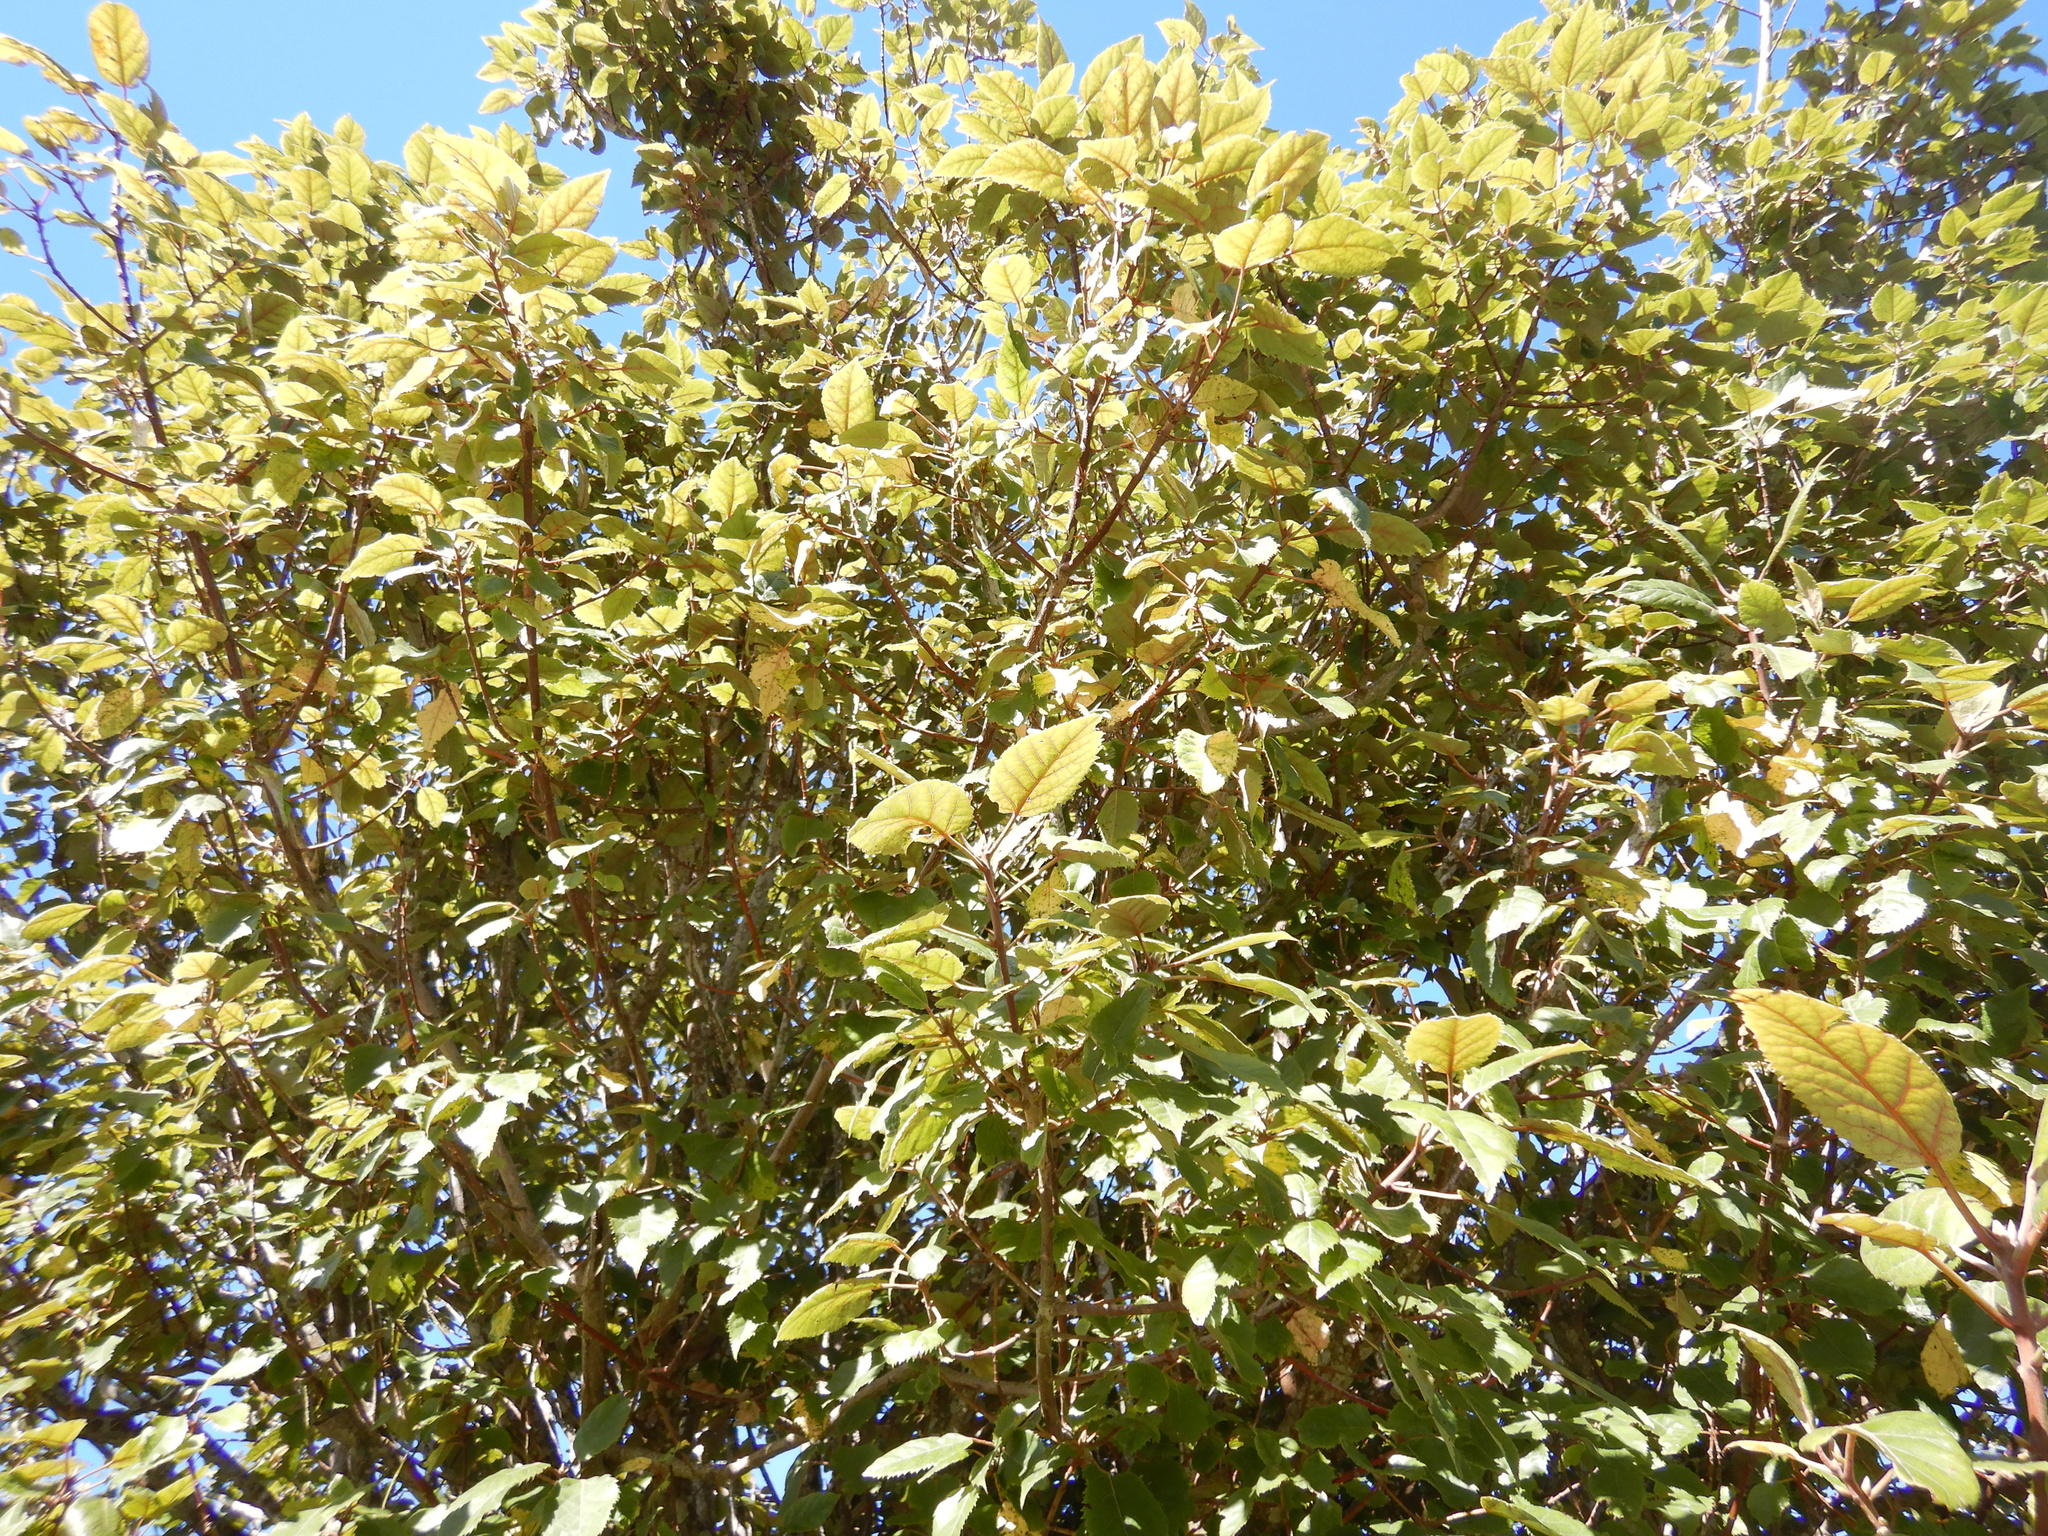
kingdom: Plantae
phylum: Tracheophyta
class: Magnoliopsida
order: Oxalidales
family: Elaeocarpaceae
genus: Aristotelia
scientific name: Aristotelia serrata
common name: New zealand wineberry
